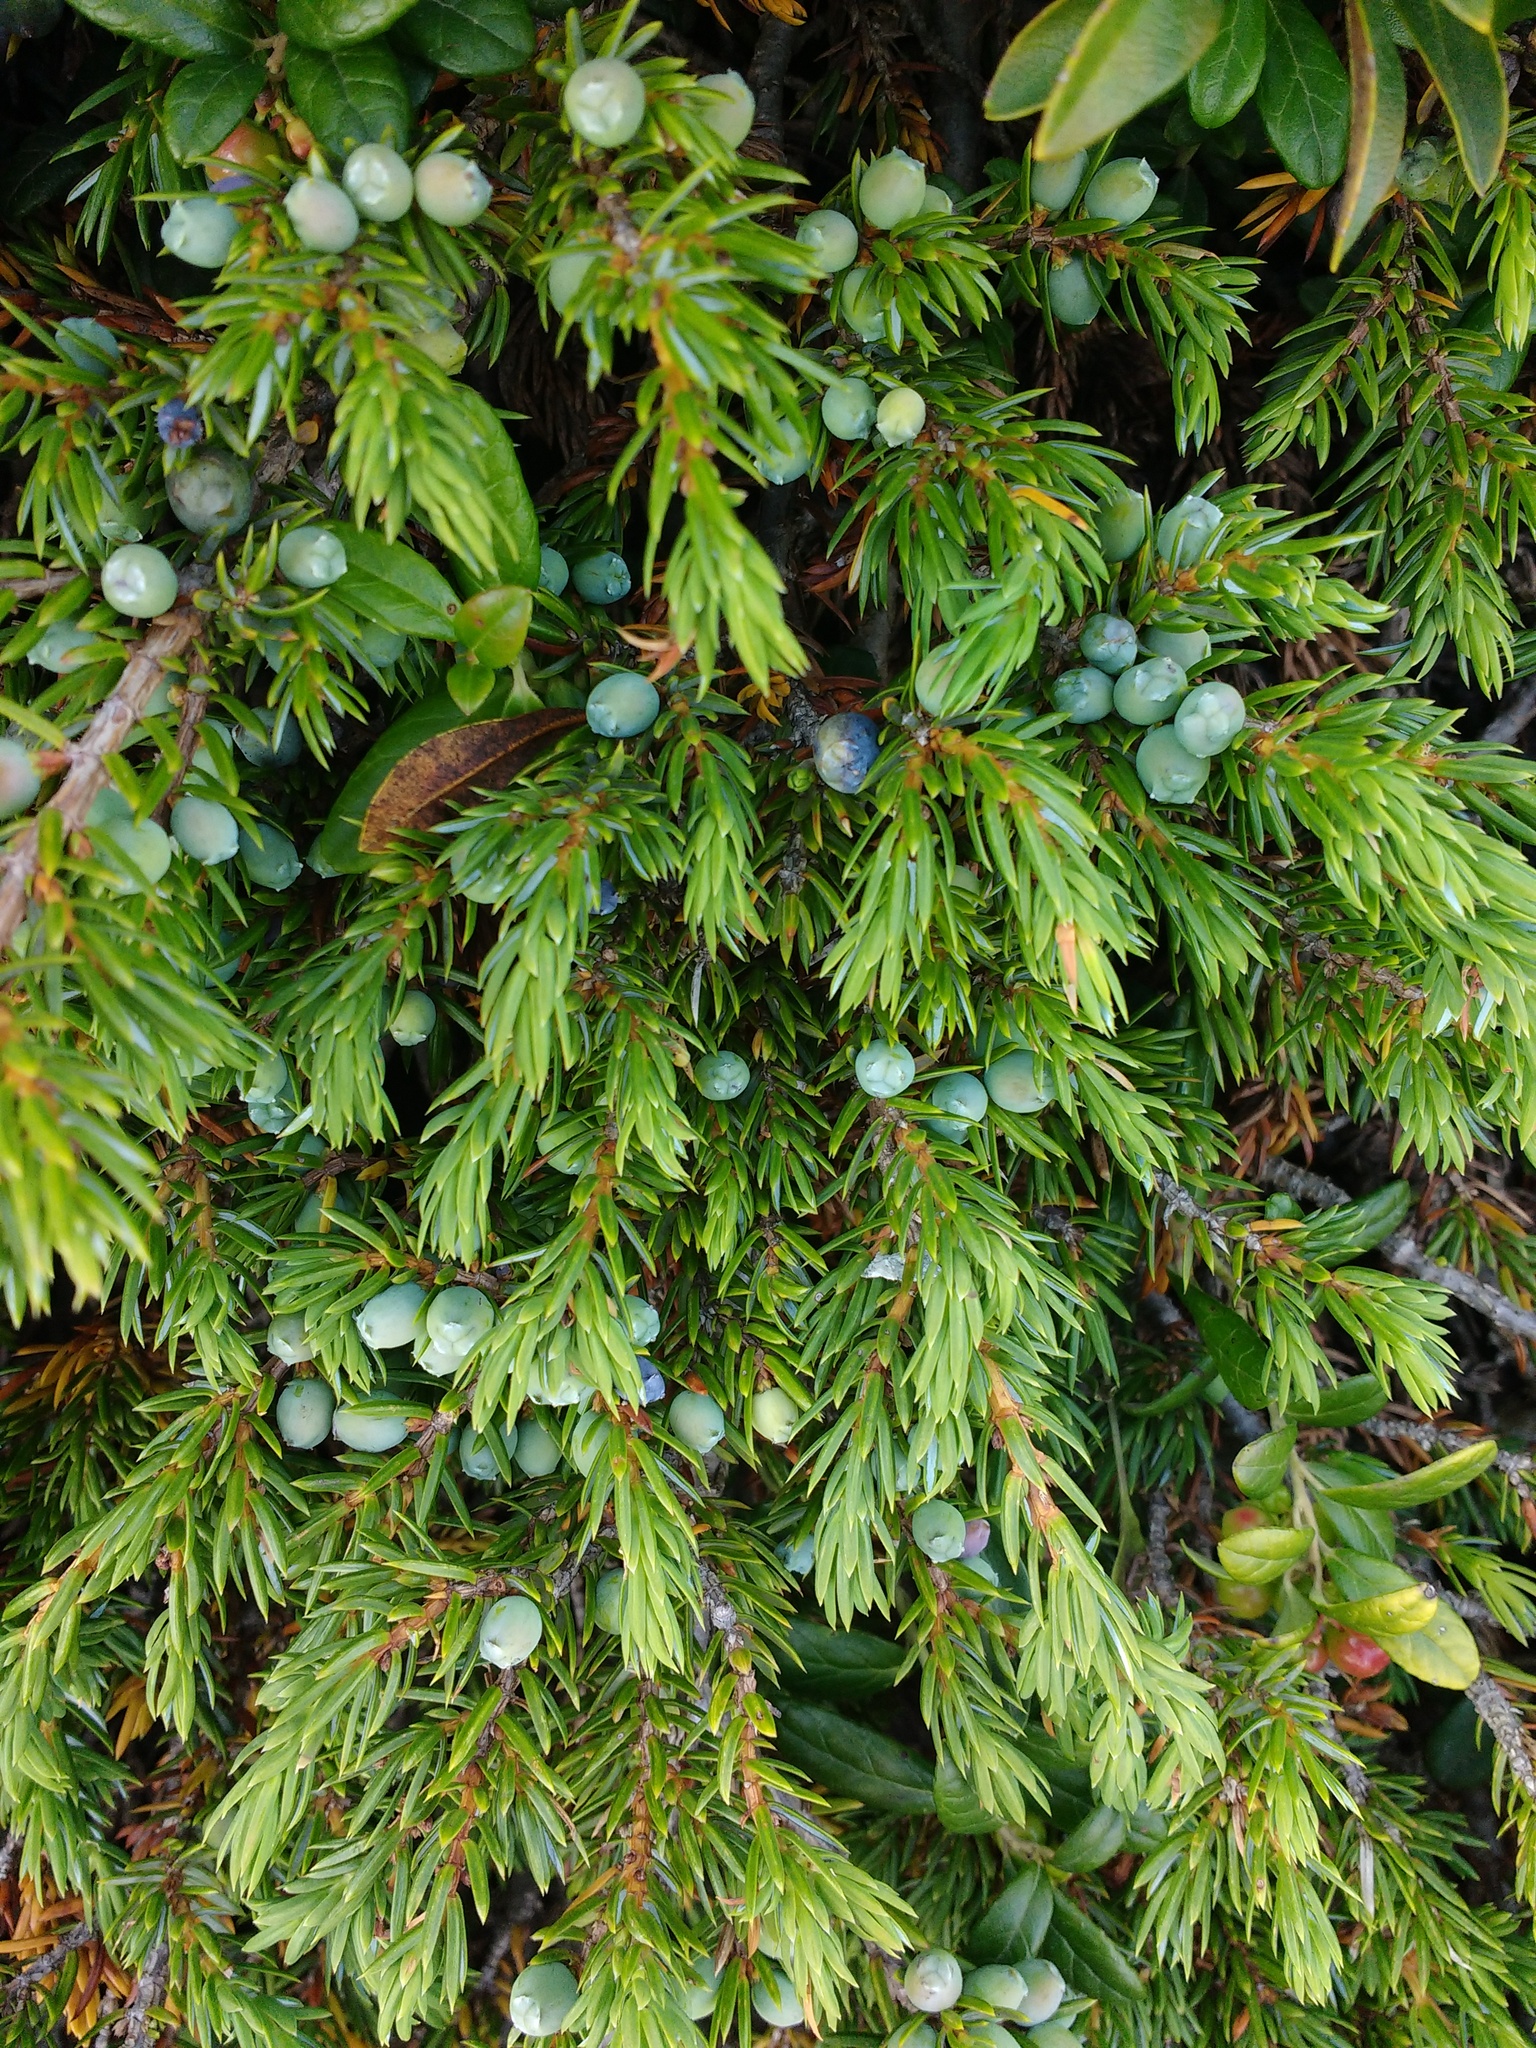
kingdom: Plantae
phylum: Tracheophyta
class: Pinopsida
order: Pinales
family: Cupressaceae
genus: Juniperus
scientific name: Juniperus communis
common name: Common juniper
